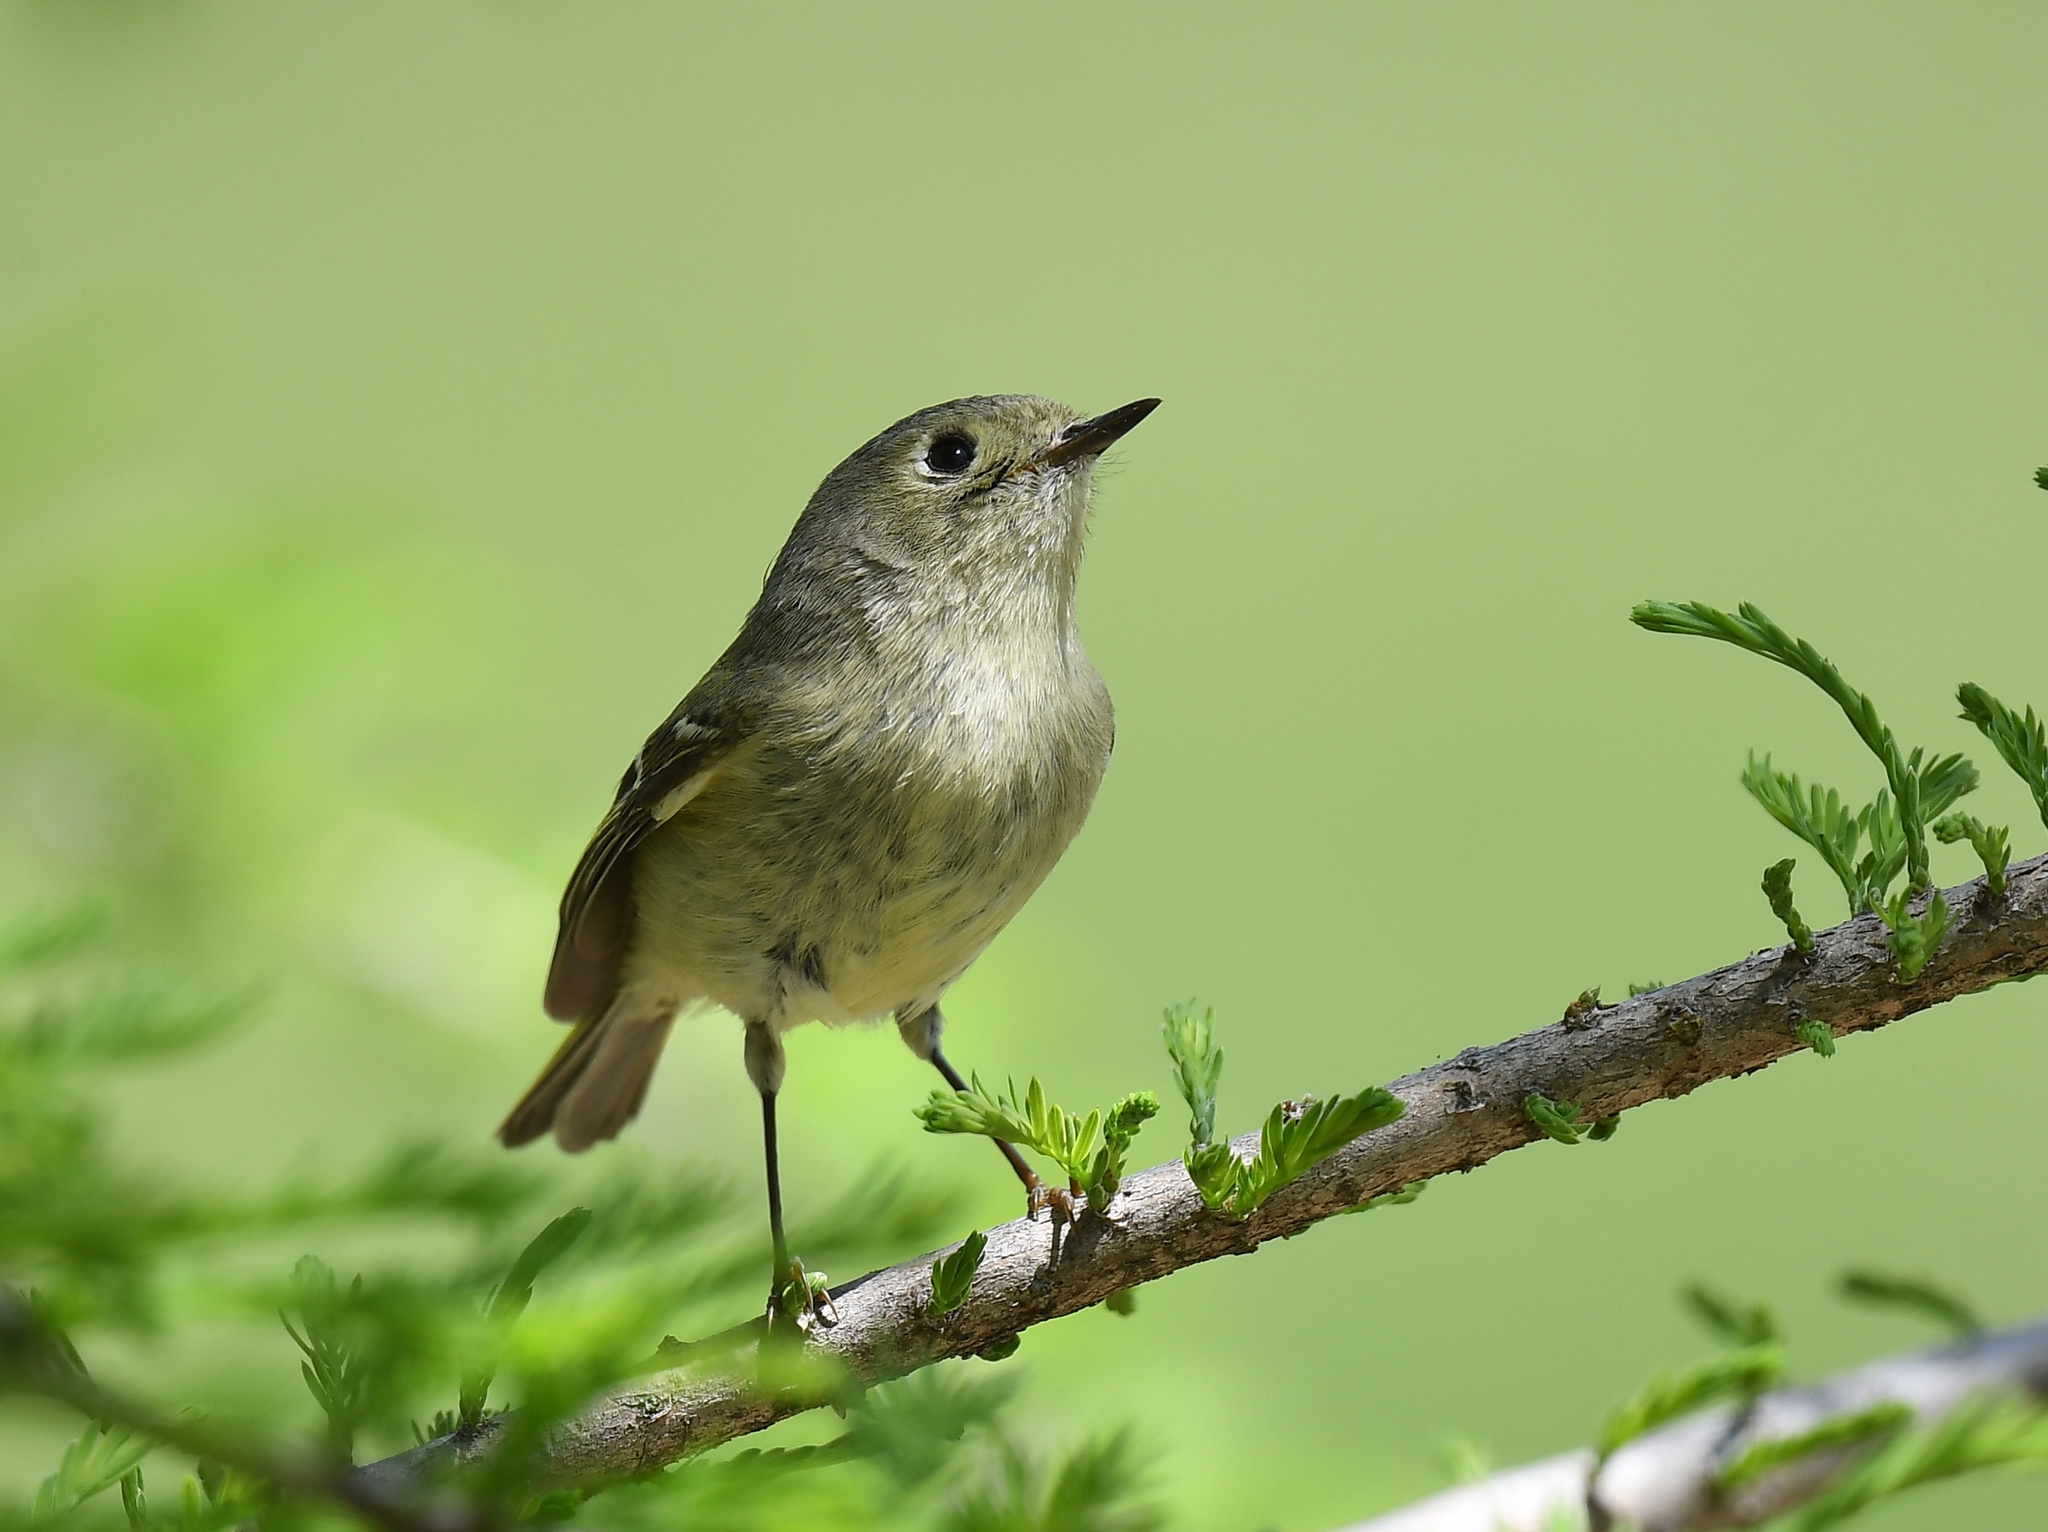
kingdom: Animalia
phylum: Chordata
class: Aves
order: Passeriformes
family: Regulidae
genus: Regulus
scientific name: Regulus calendula
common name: Ruby-crowned kinglet
